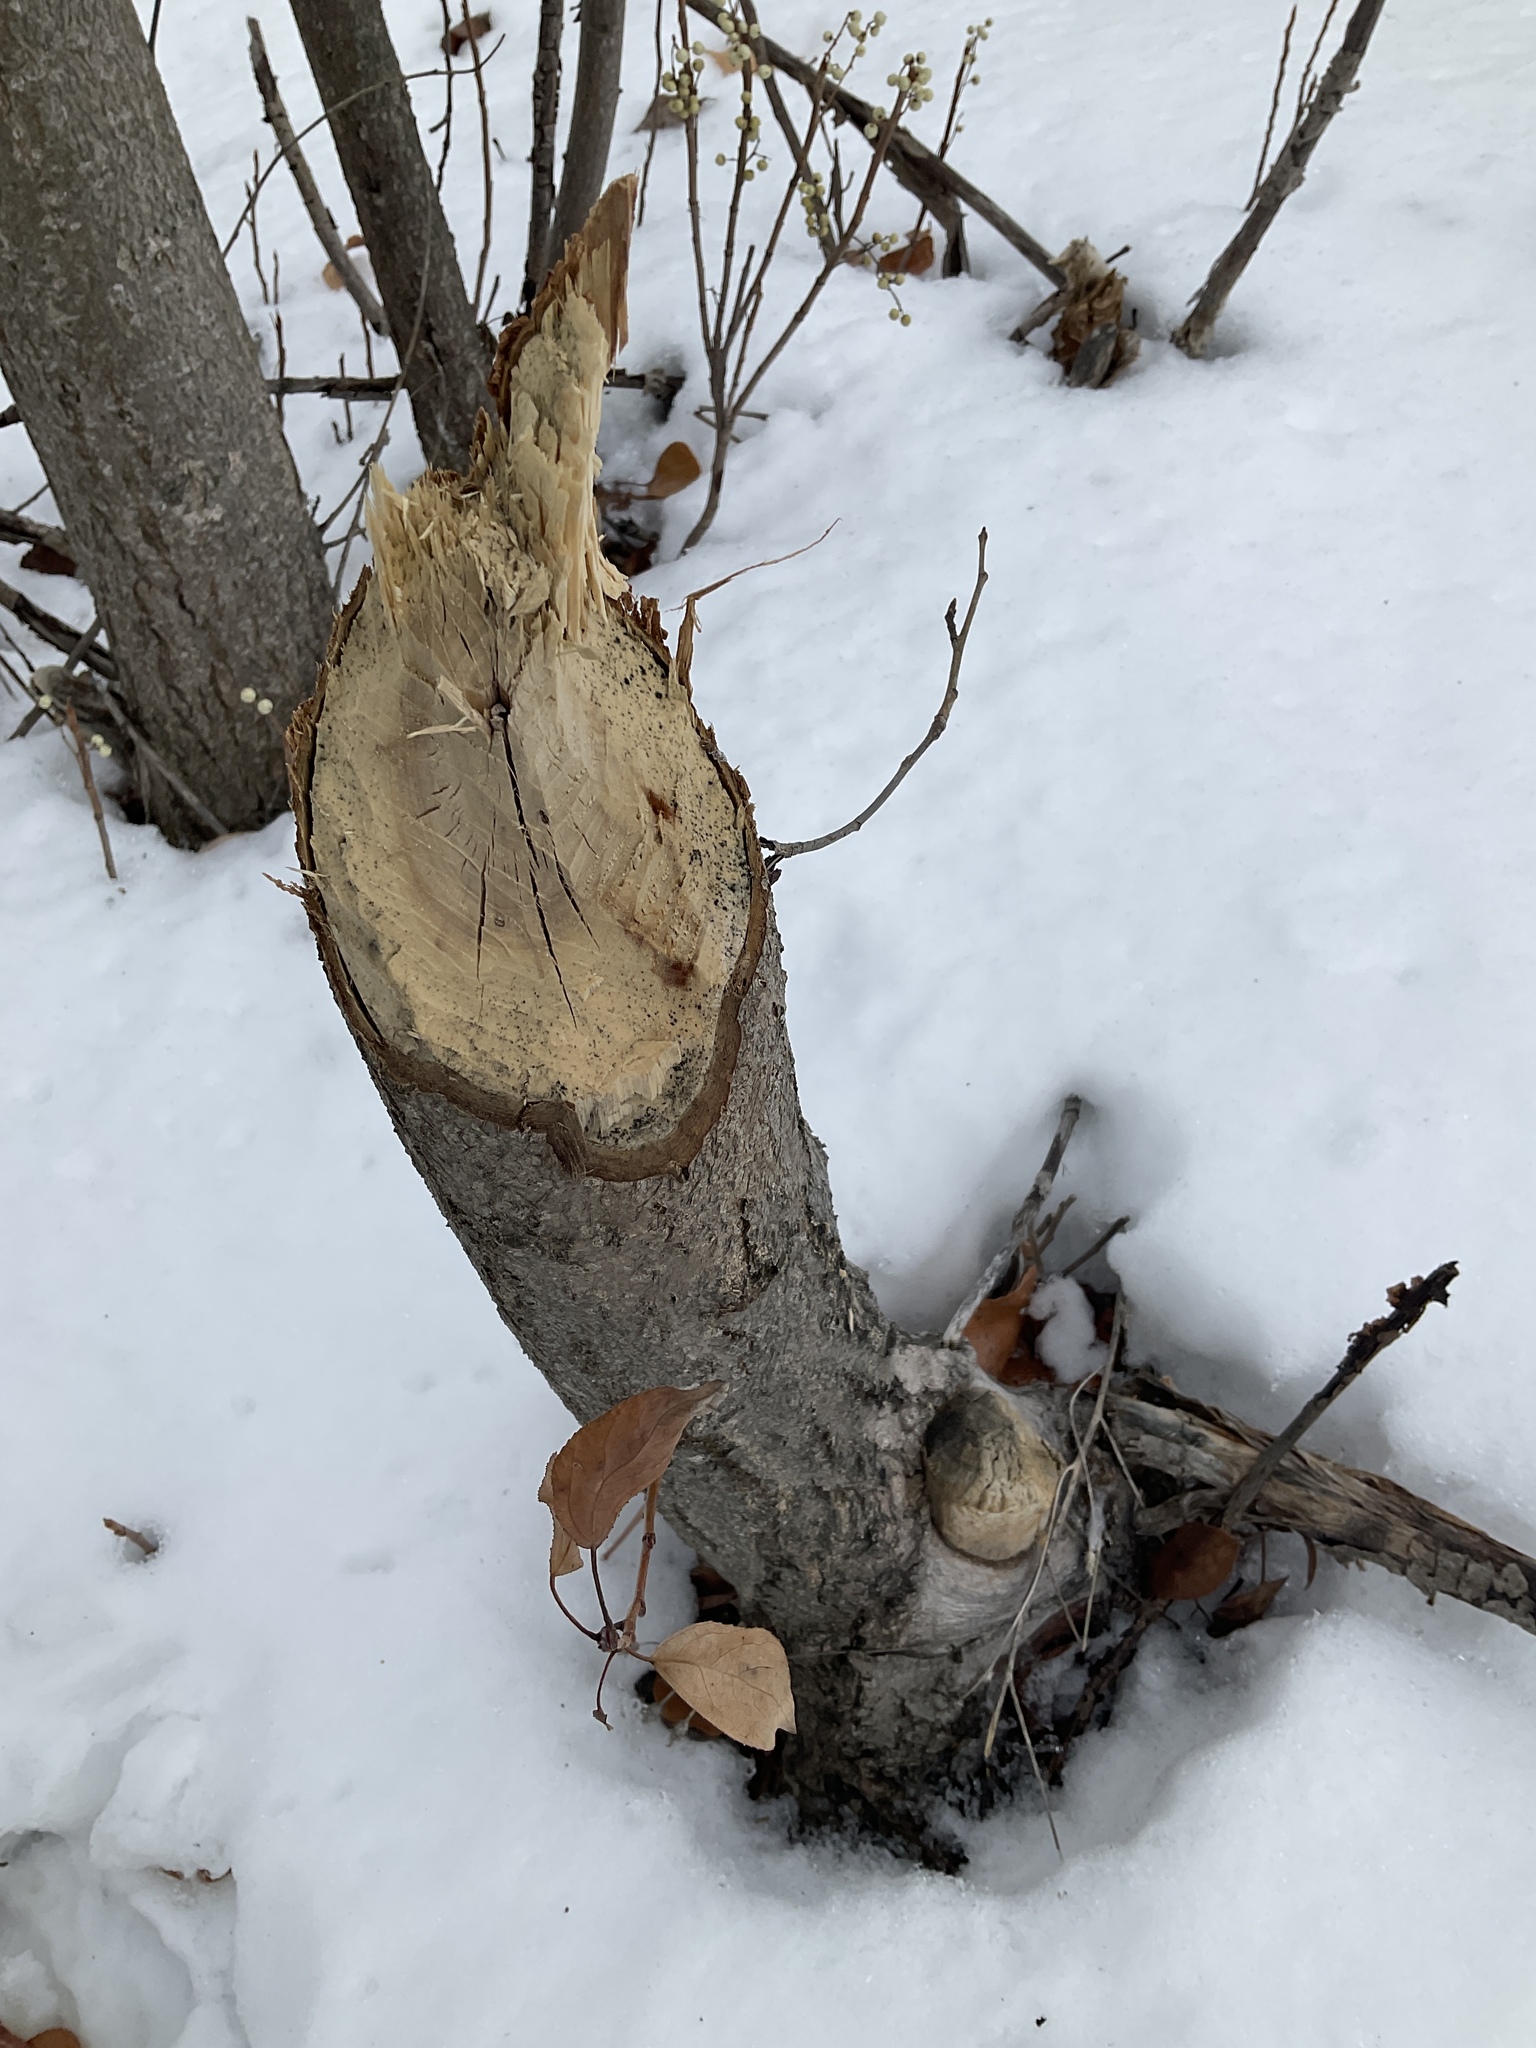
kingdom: Animalia
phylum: Chordata
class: Mammalia
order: Rodentia
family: Castoridae
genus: Castor
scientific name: Castor canadensis
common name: American beaver
